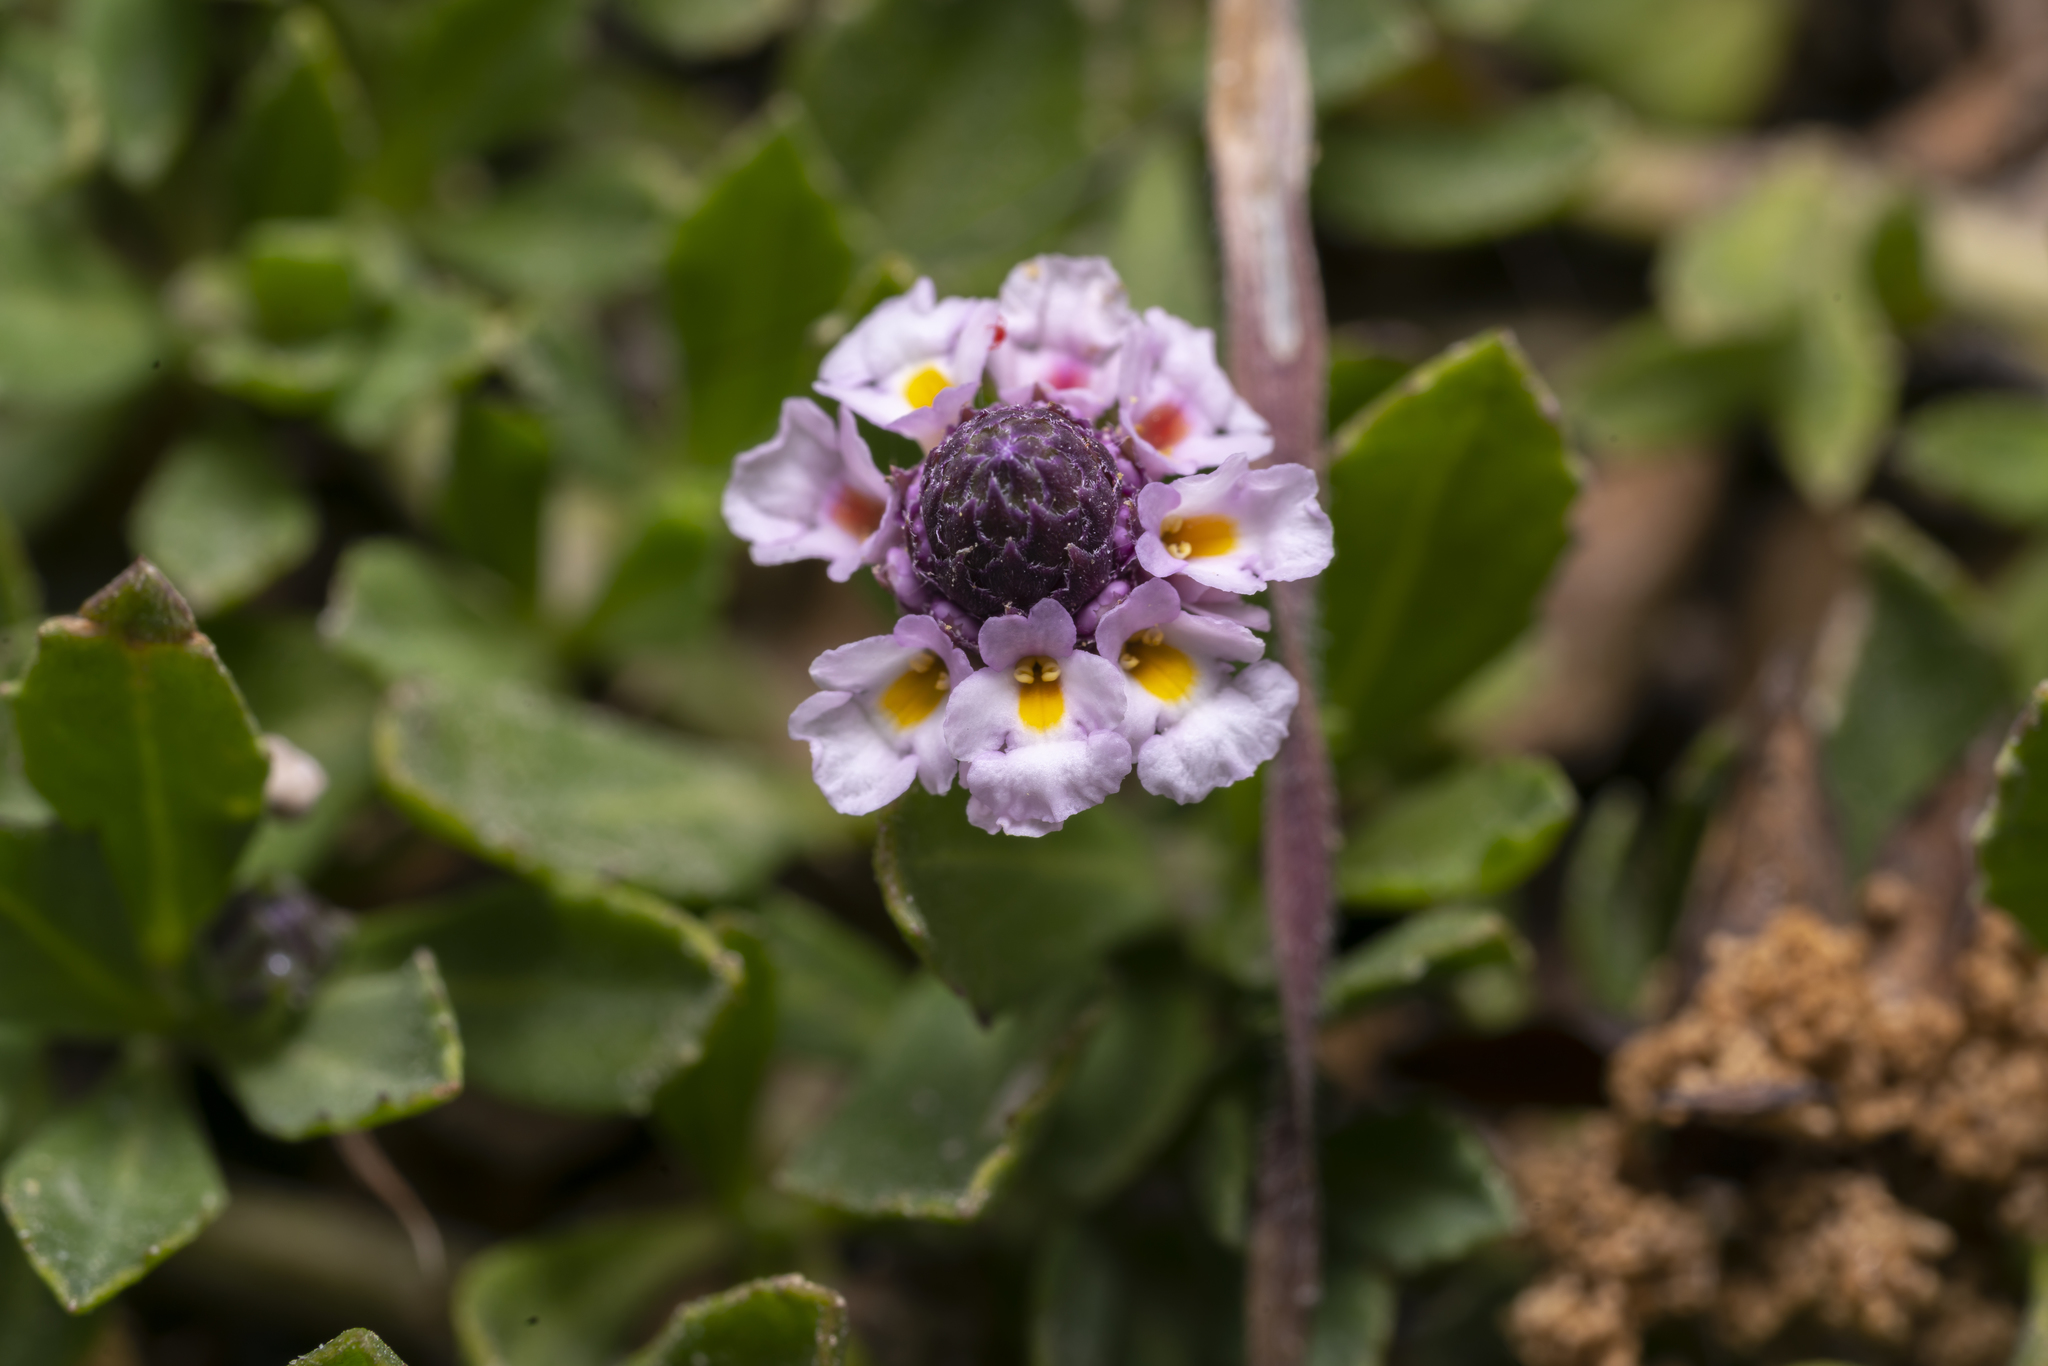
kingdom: Plantae
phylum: Tracheophyta
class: Magnoliopsida
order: Lamiales
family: Verbenaceae
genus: Phyla
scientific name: Phyla nodiflora
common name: Frogfruit
